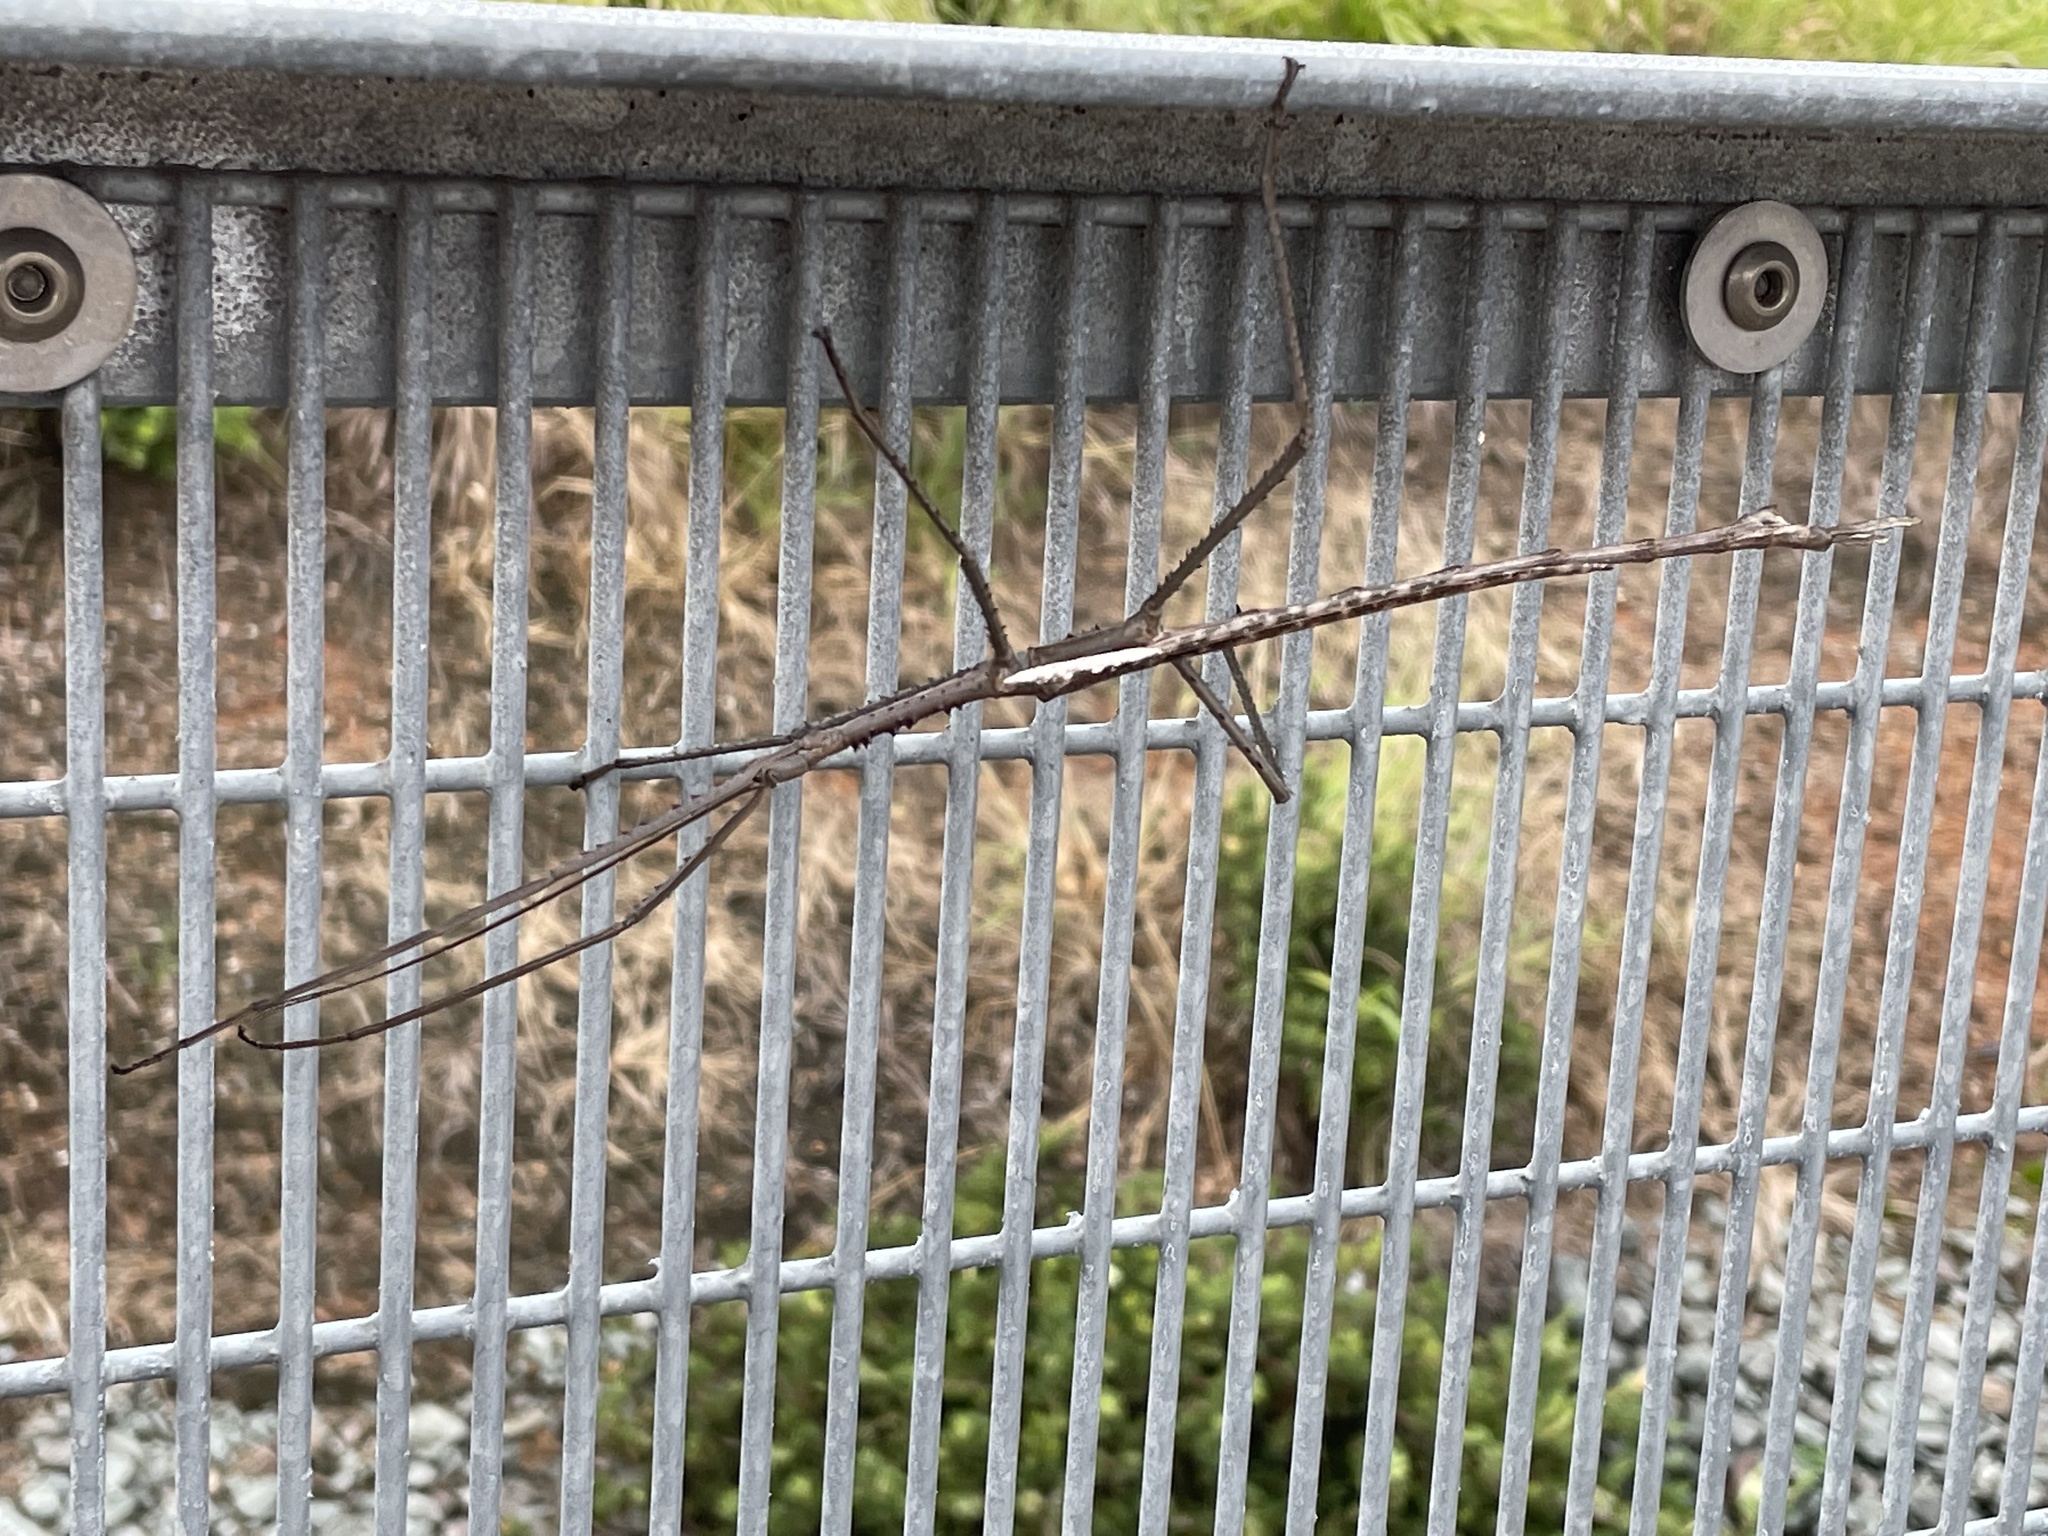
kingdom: Animalia
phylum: Arthropoda
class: Insecta
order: Phasmida
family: Phasmatidae
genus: Acrophylla
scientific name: Acrophylla titan
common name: Titan stick insect
